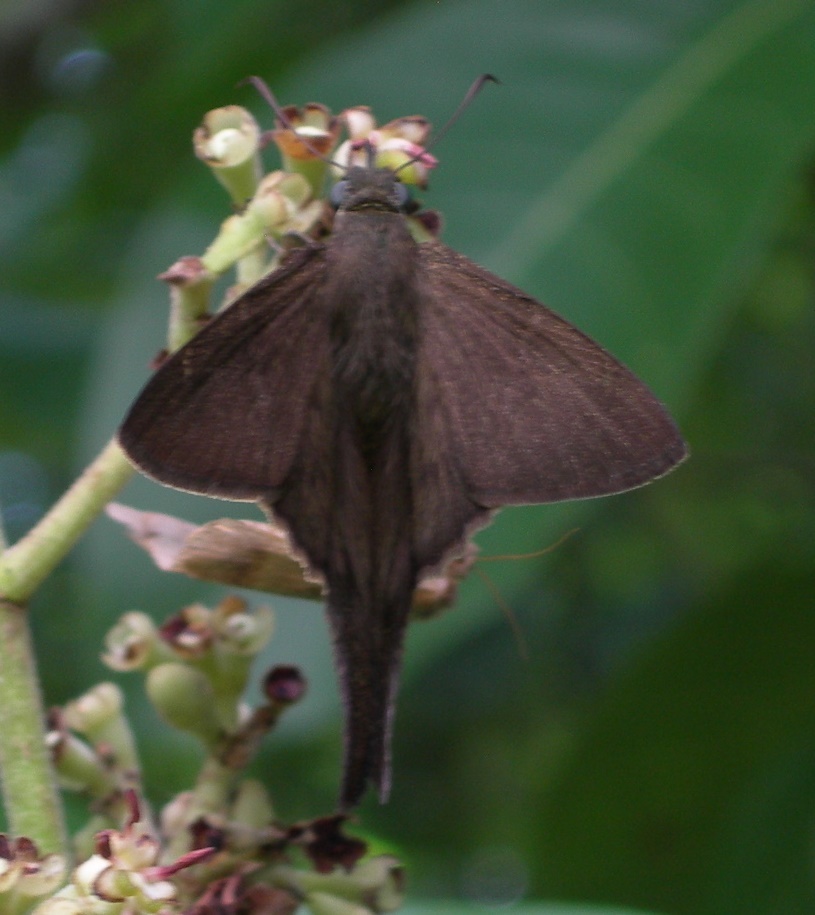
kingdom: Animalia
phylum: Arthropoda
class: Insecta
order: Lepidoptera
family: Hesperiidae
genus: Urbanus
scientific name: Urbanus simplicius
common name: Plain longtail
